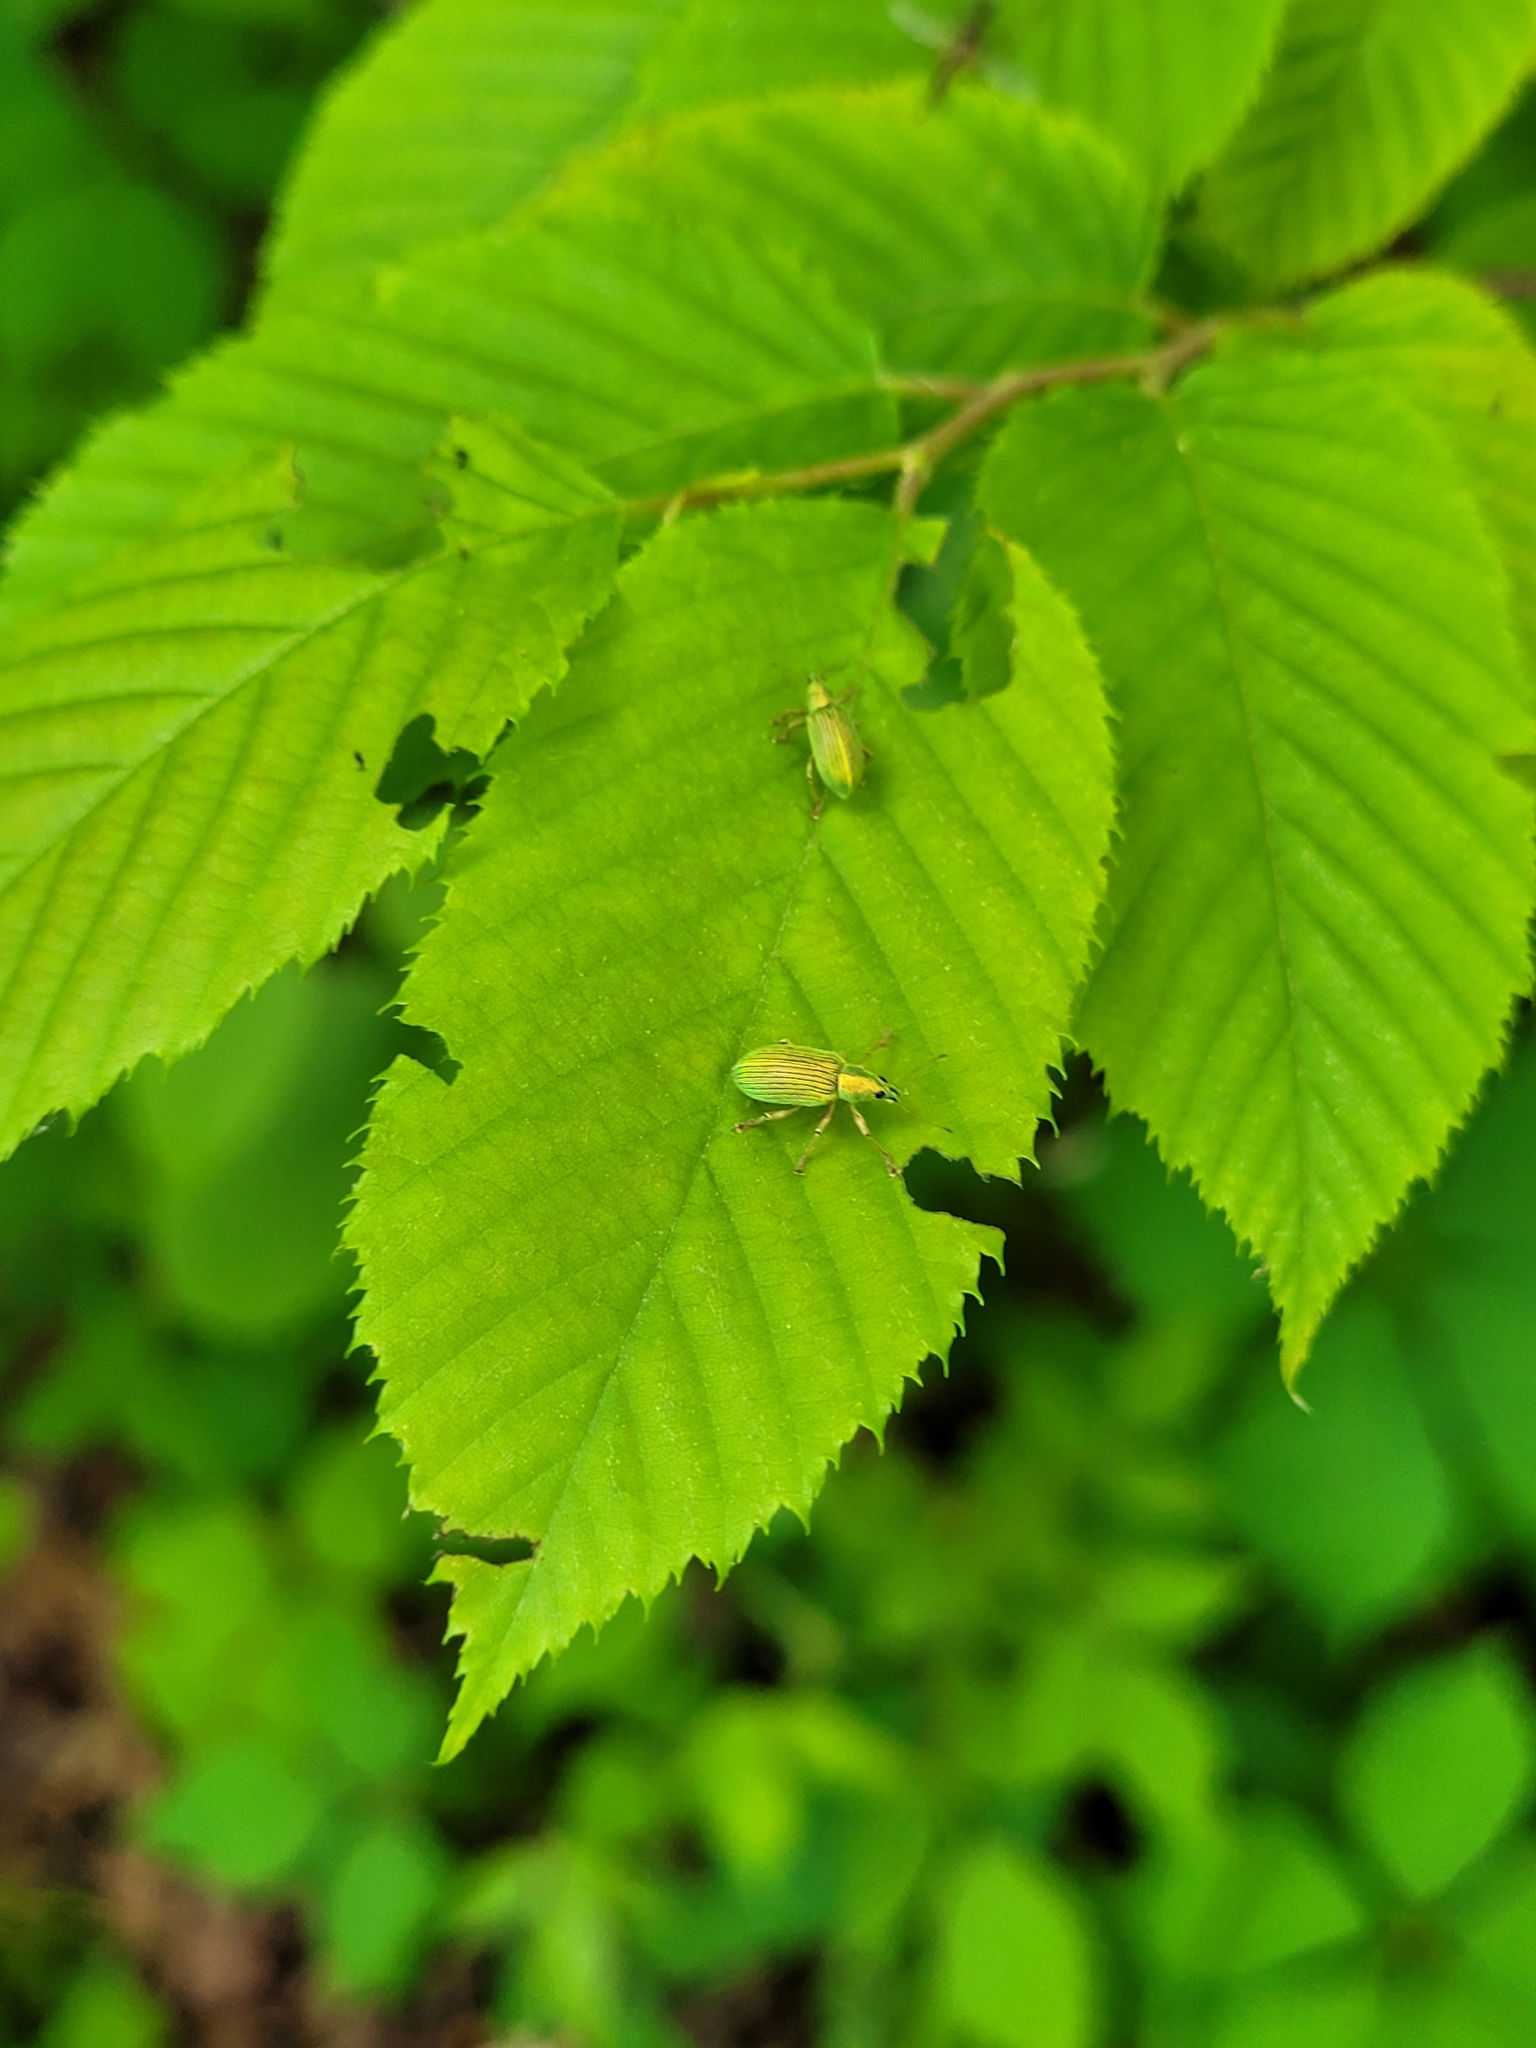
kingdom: Animalia
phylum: Arthropoda
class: Insecta
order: Coleoptera
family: Curculionidae
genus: Polydrusus
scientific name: Polydrusus formosus
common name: Weevil
